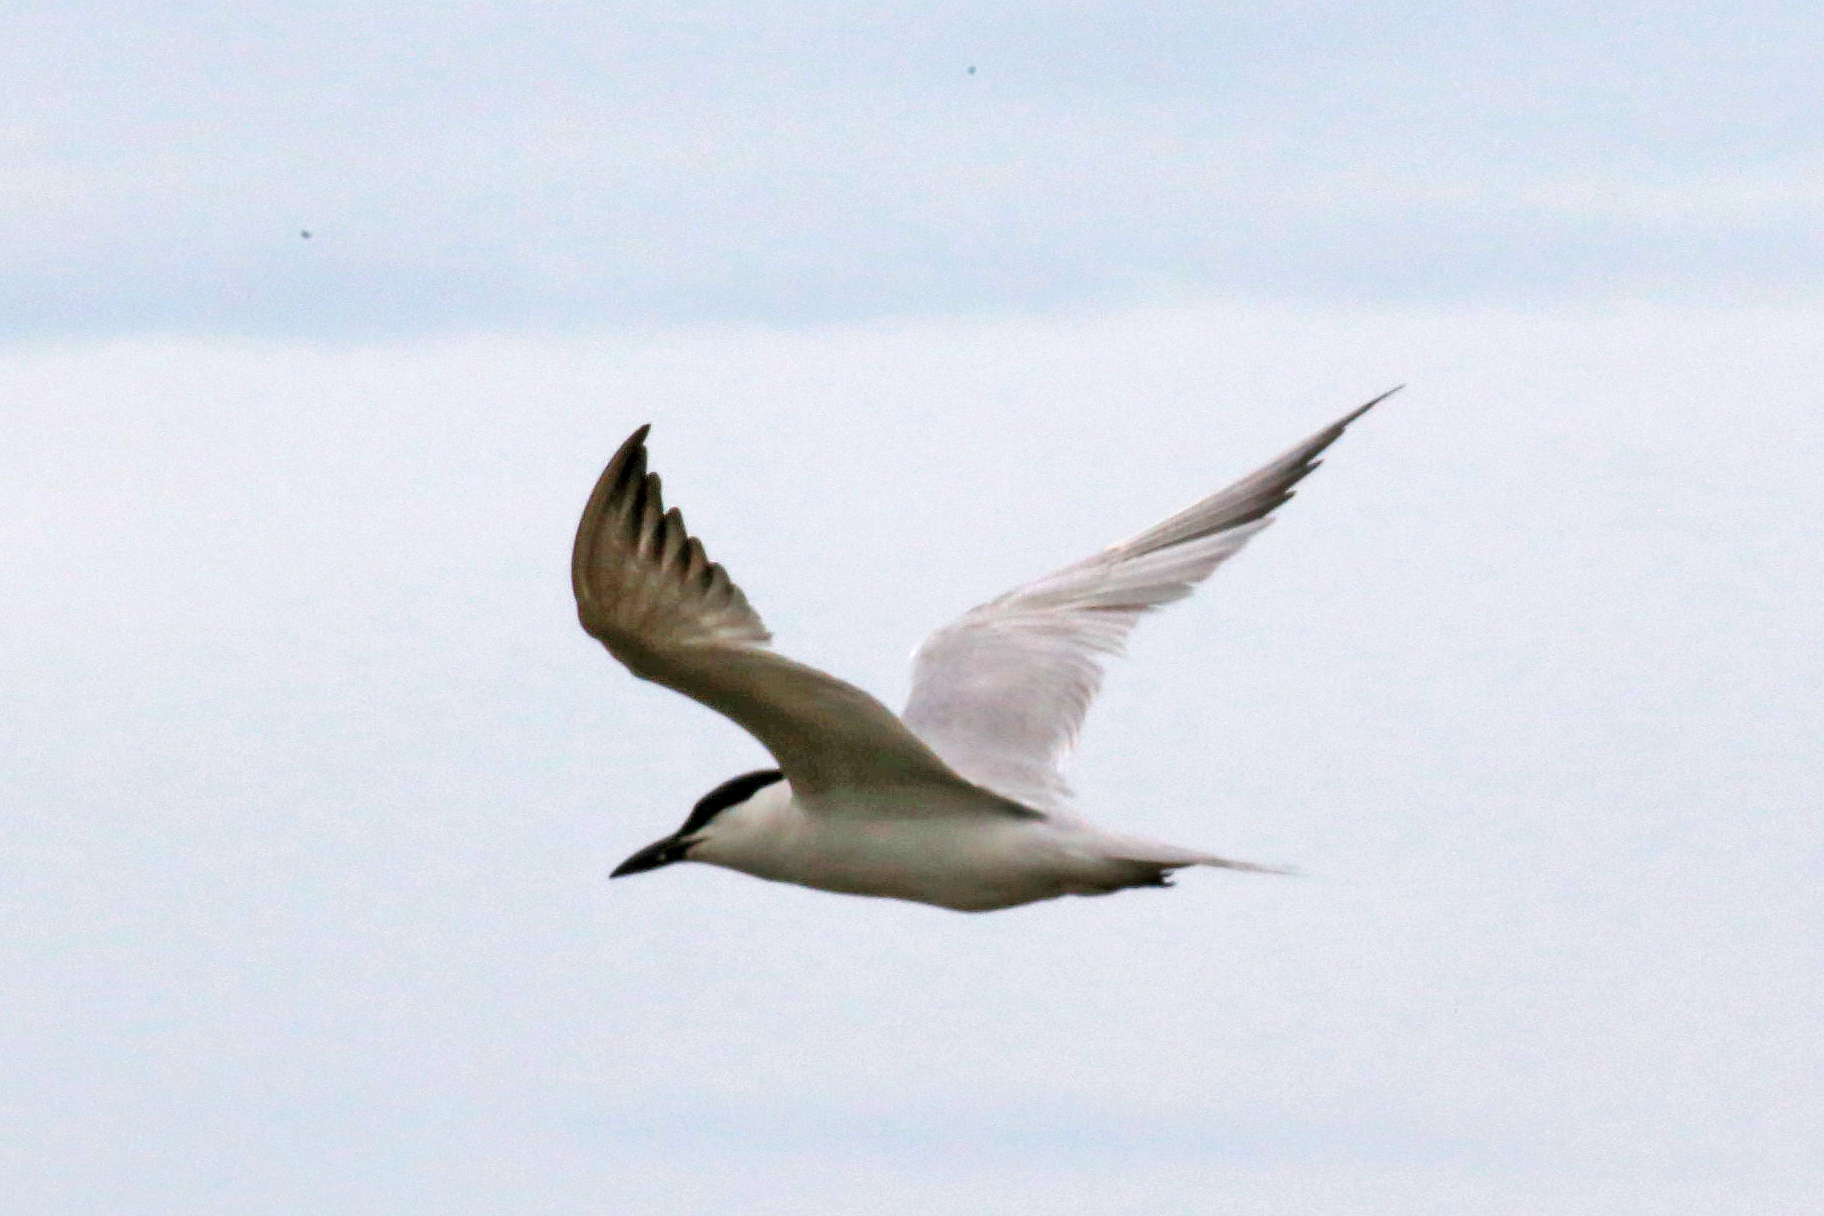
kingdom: Animalia
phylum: Chordata
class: Aves
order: Charadriiformes
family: Laridae
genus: Gelochelidon
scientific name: Gelochelidon nilotica
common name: Gull-billed tern
